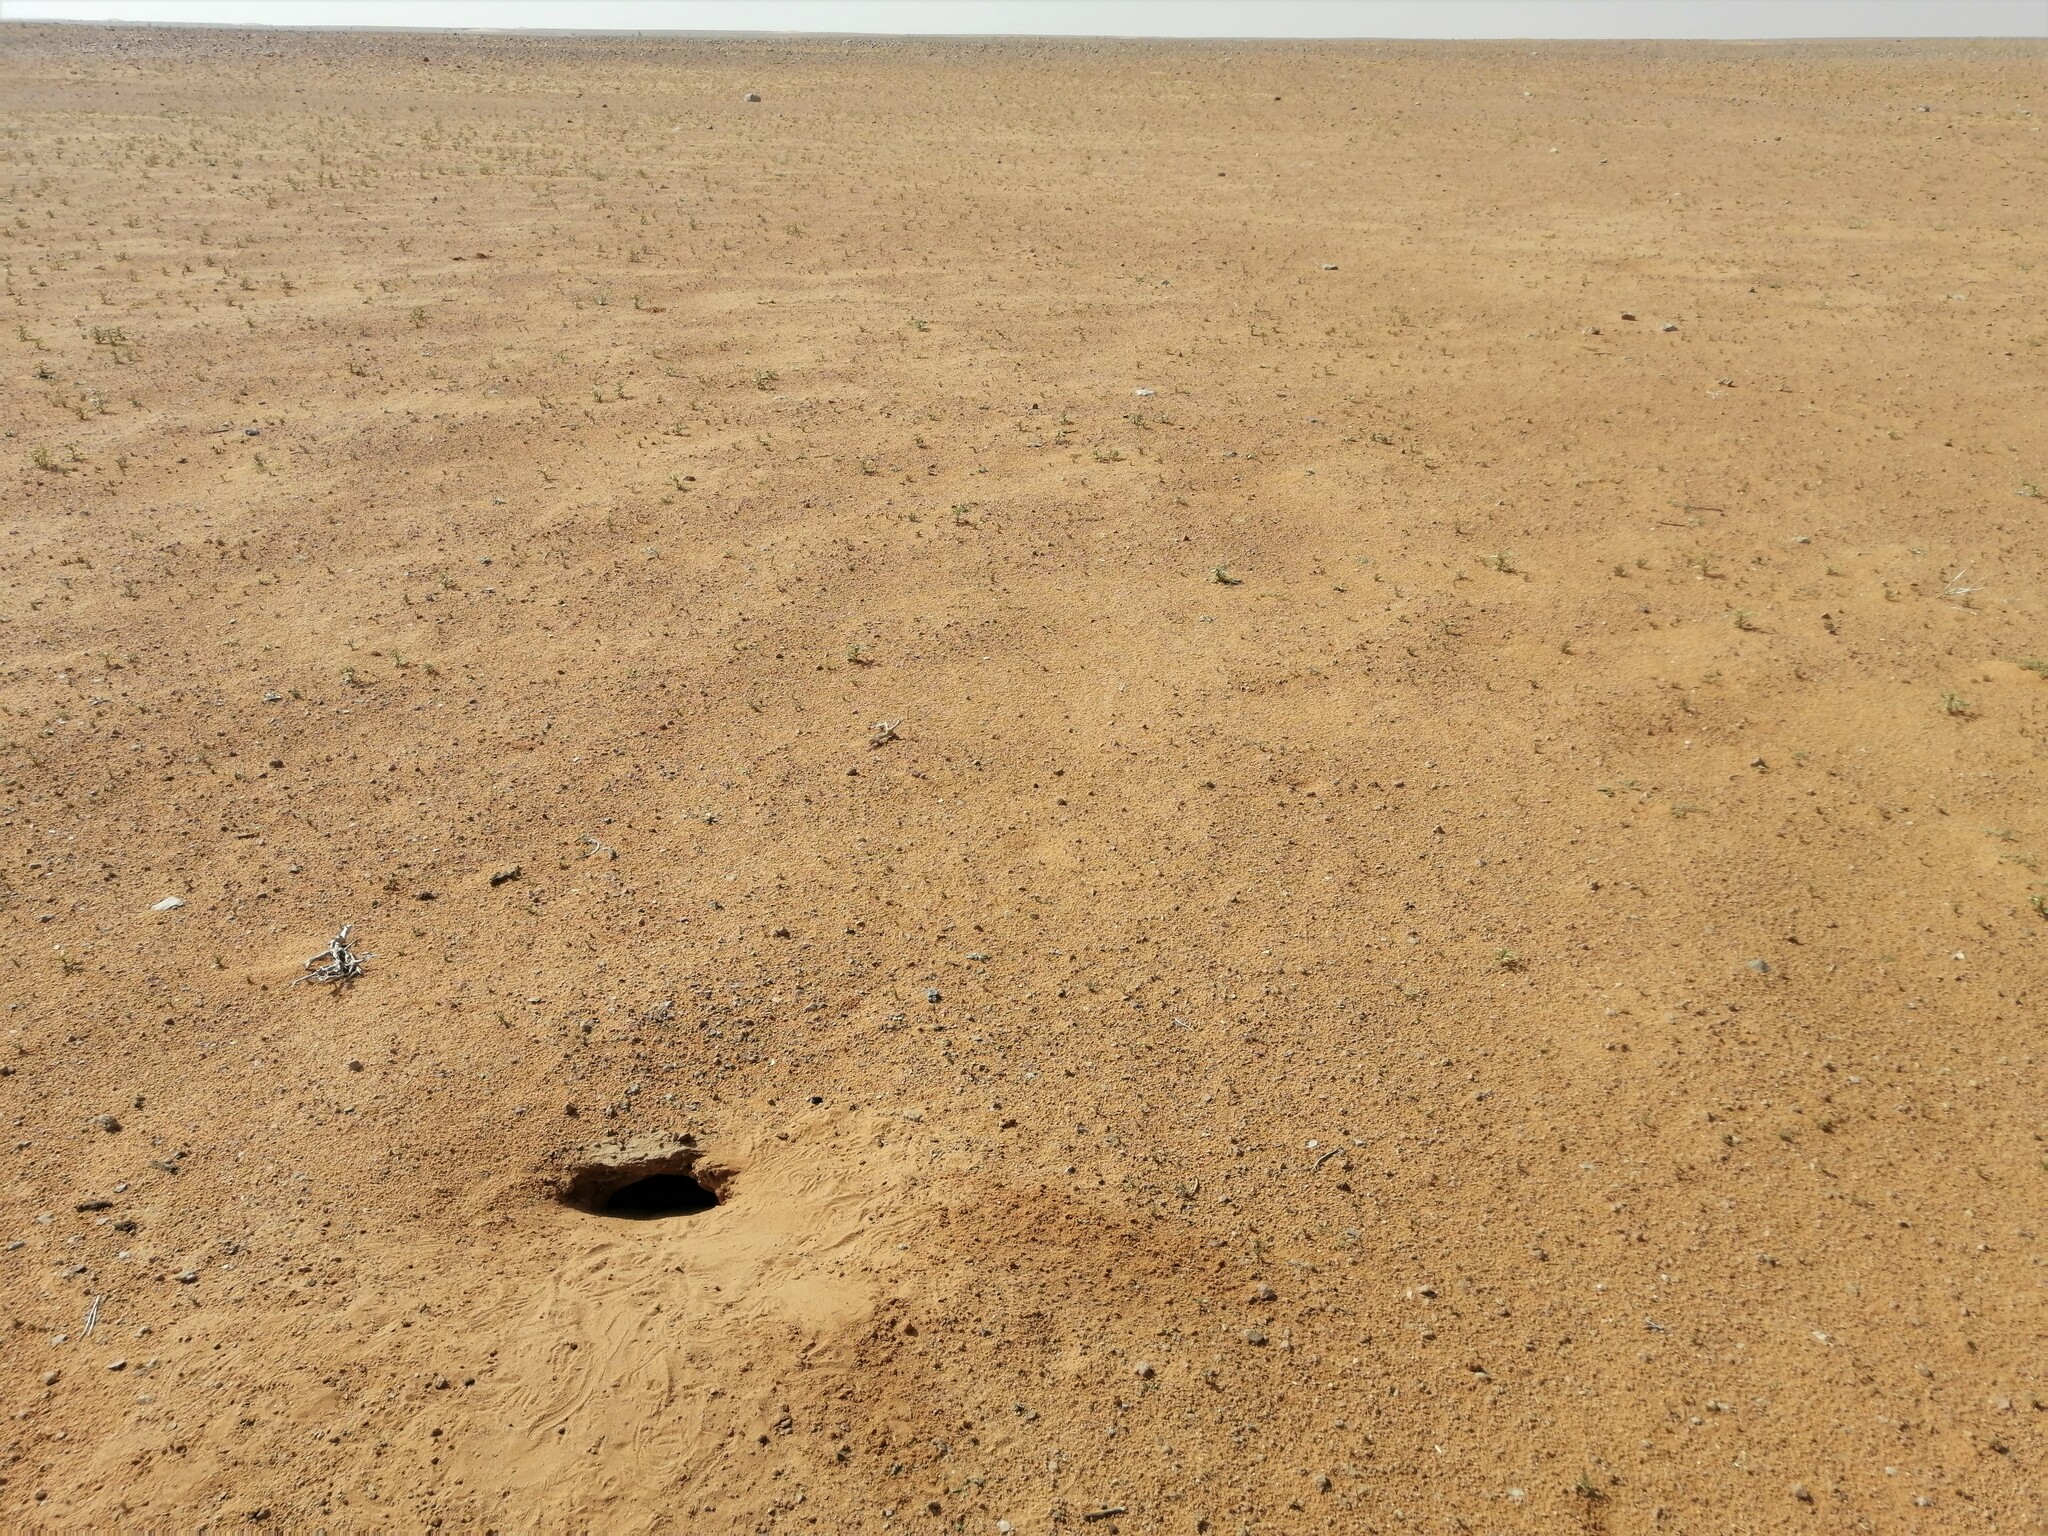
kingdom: Animalia
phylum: Chordata
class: Squamata
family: Agamidae
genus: Uromastyx
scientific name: Uromastyx aegyptia
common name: Egyptian mastigure
